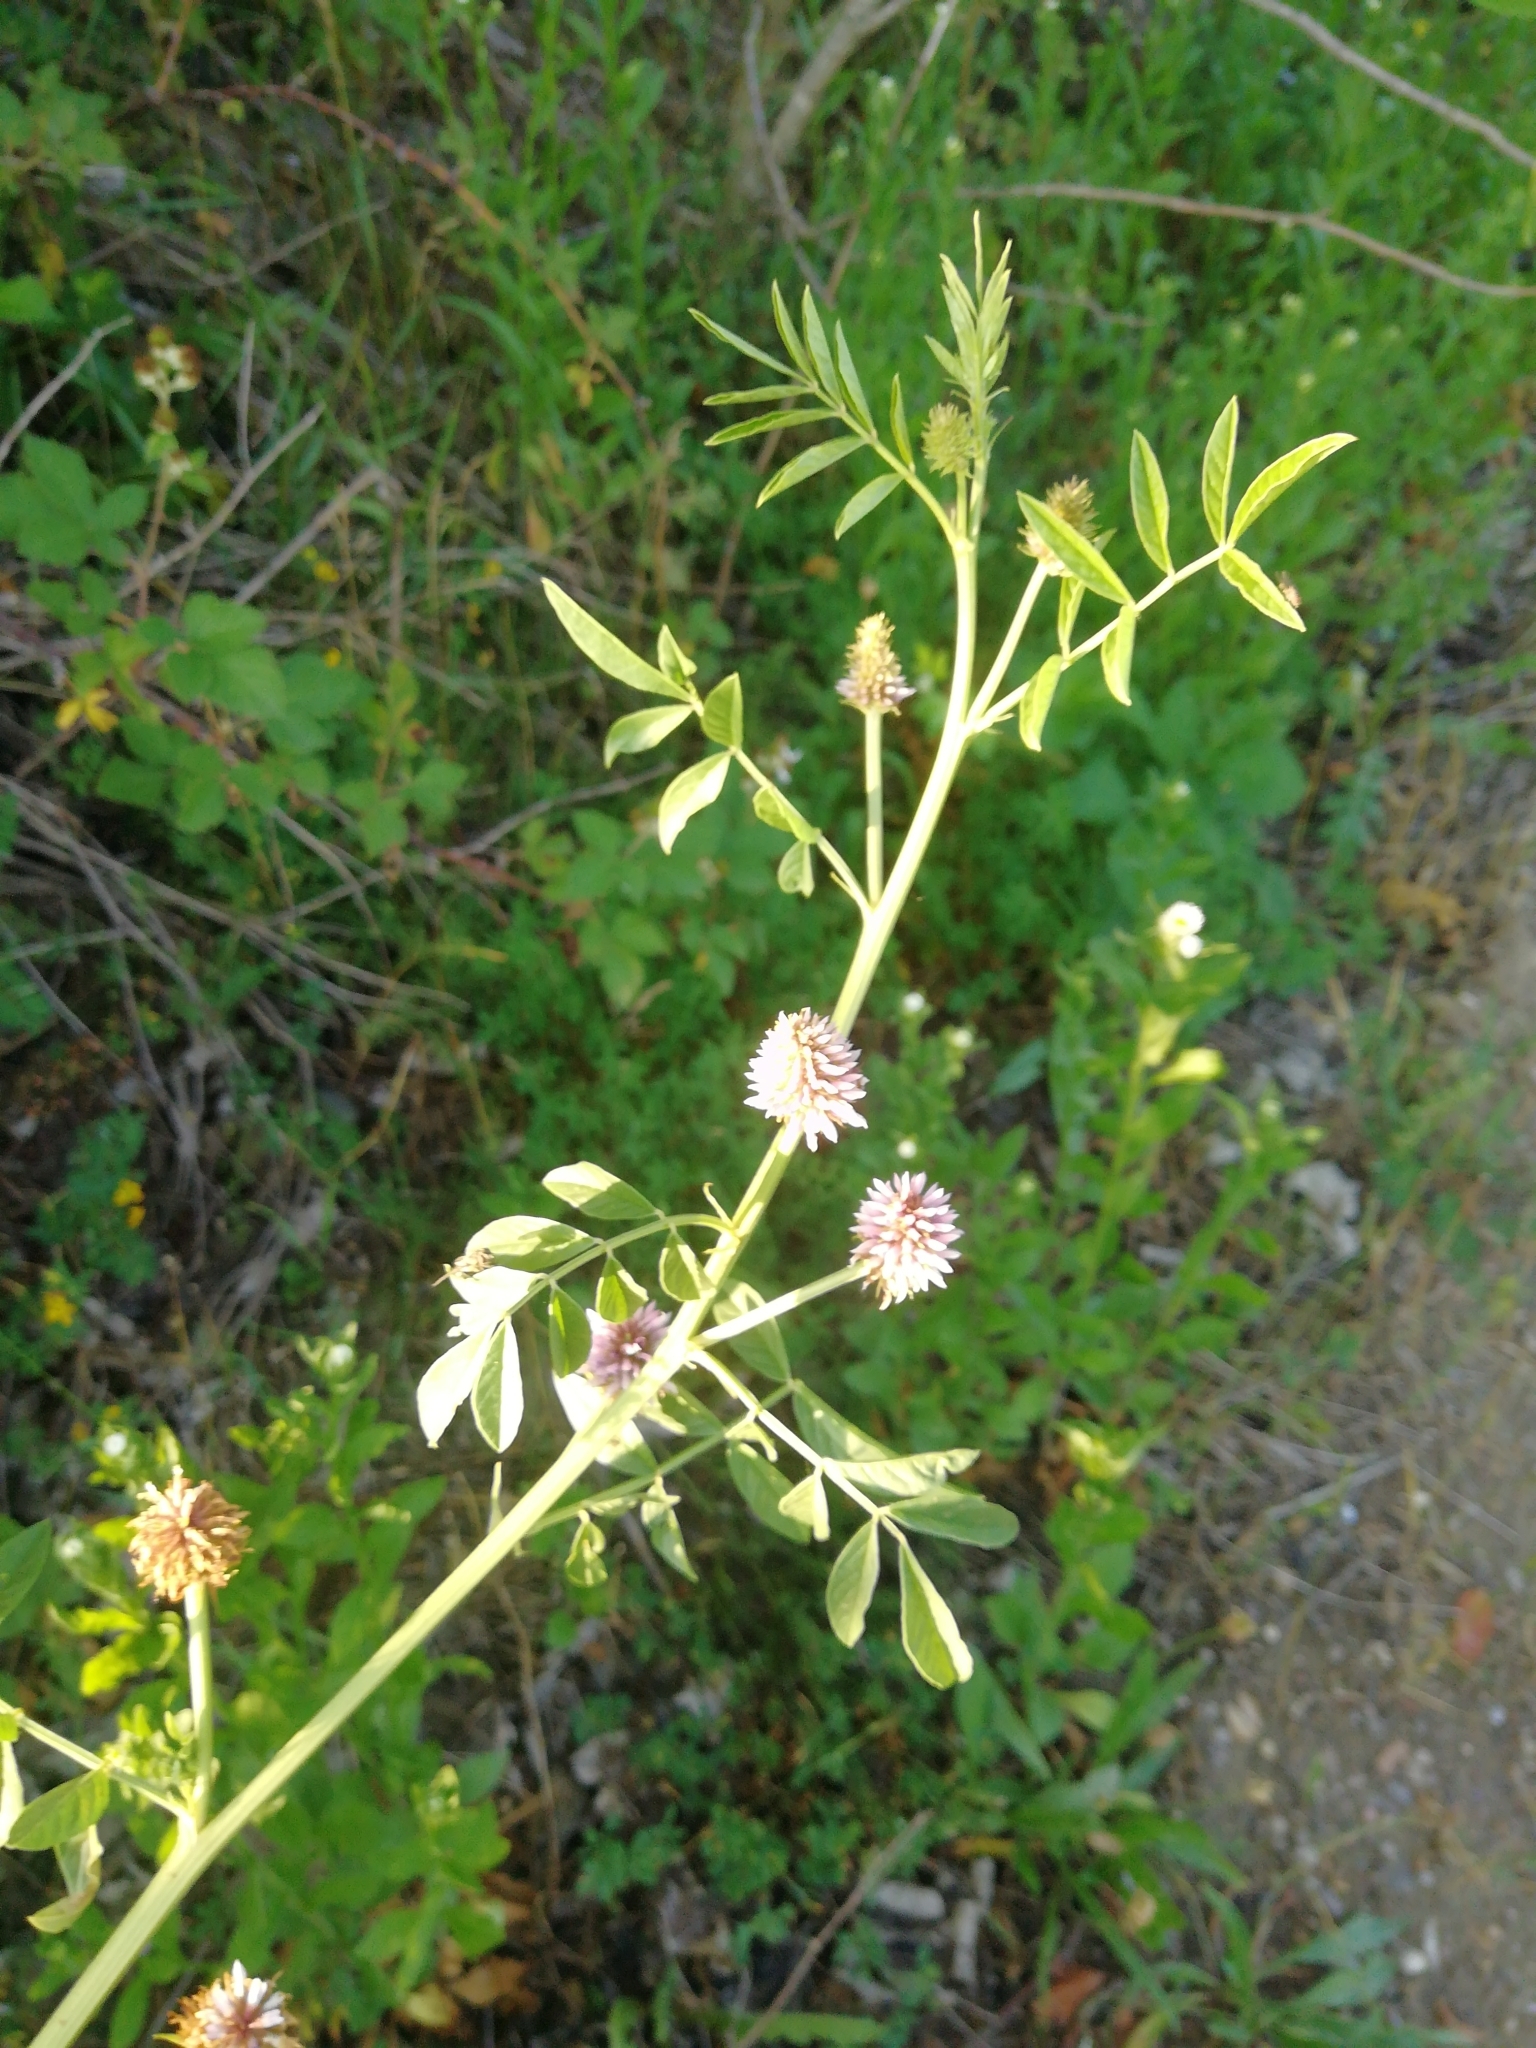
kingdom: Plantae
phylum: Tracheophyta
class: Magnoliopsida
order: Fabales
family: Fabaceae
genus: Glycyrrhiza
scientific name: Glycyrrhiza echinata
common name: German liquorice
